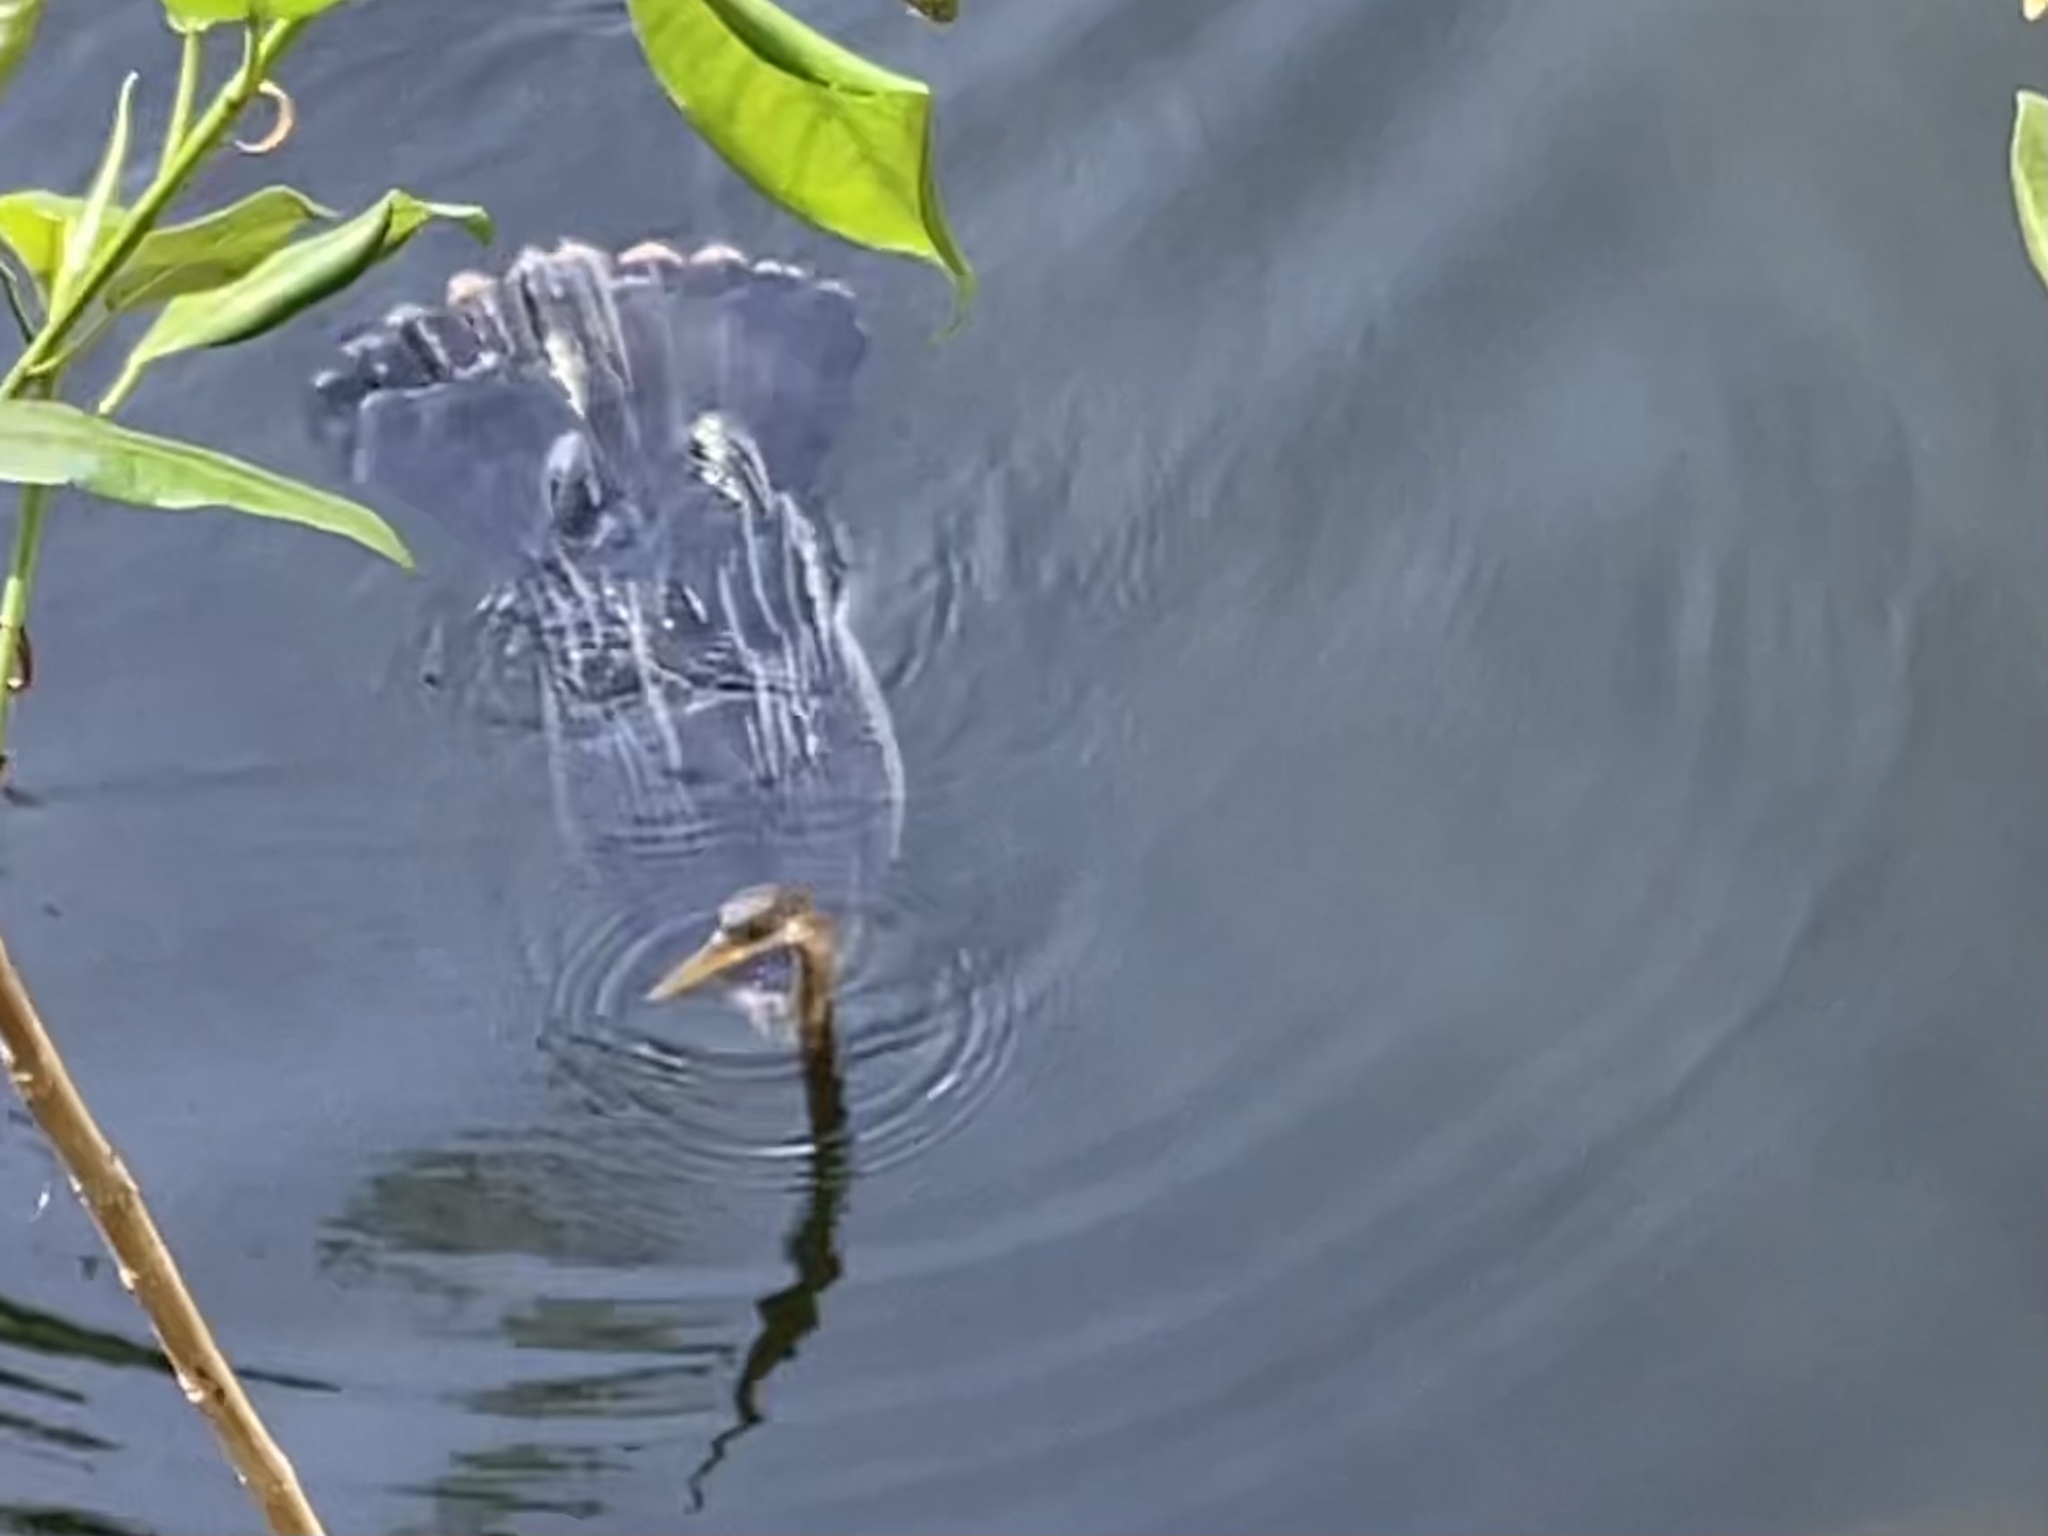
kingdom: Animalia
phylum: Chordata
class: Testudines
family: Trionychidae
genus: Apalone
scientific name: Apalone ferox
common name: Florida softshell turtle
